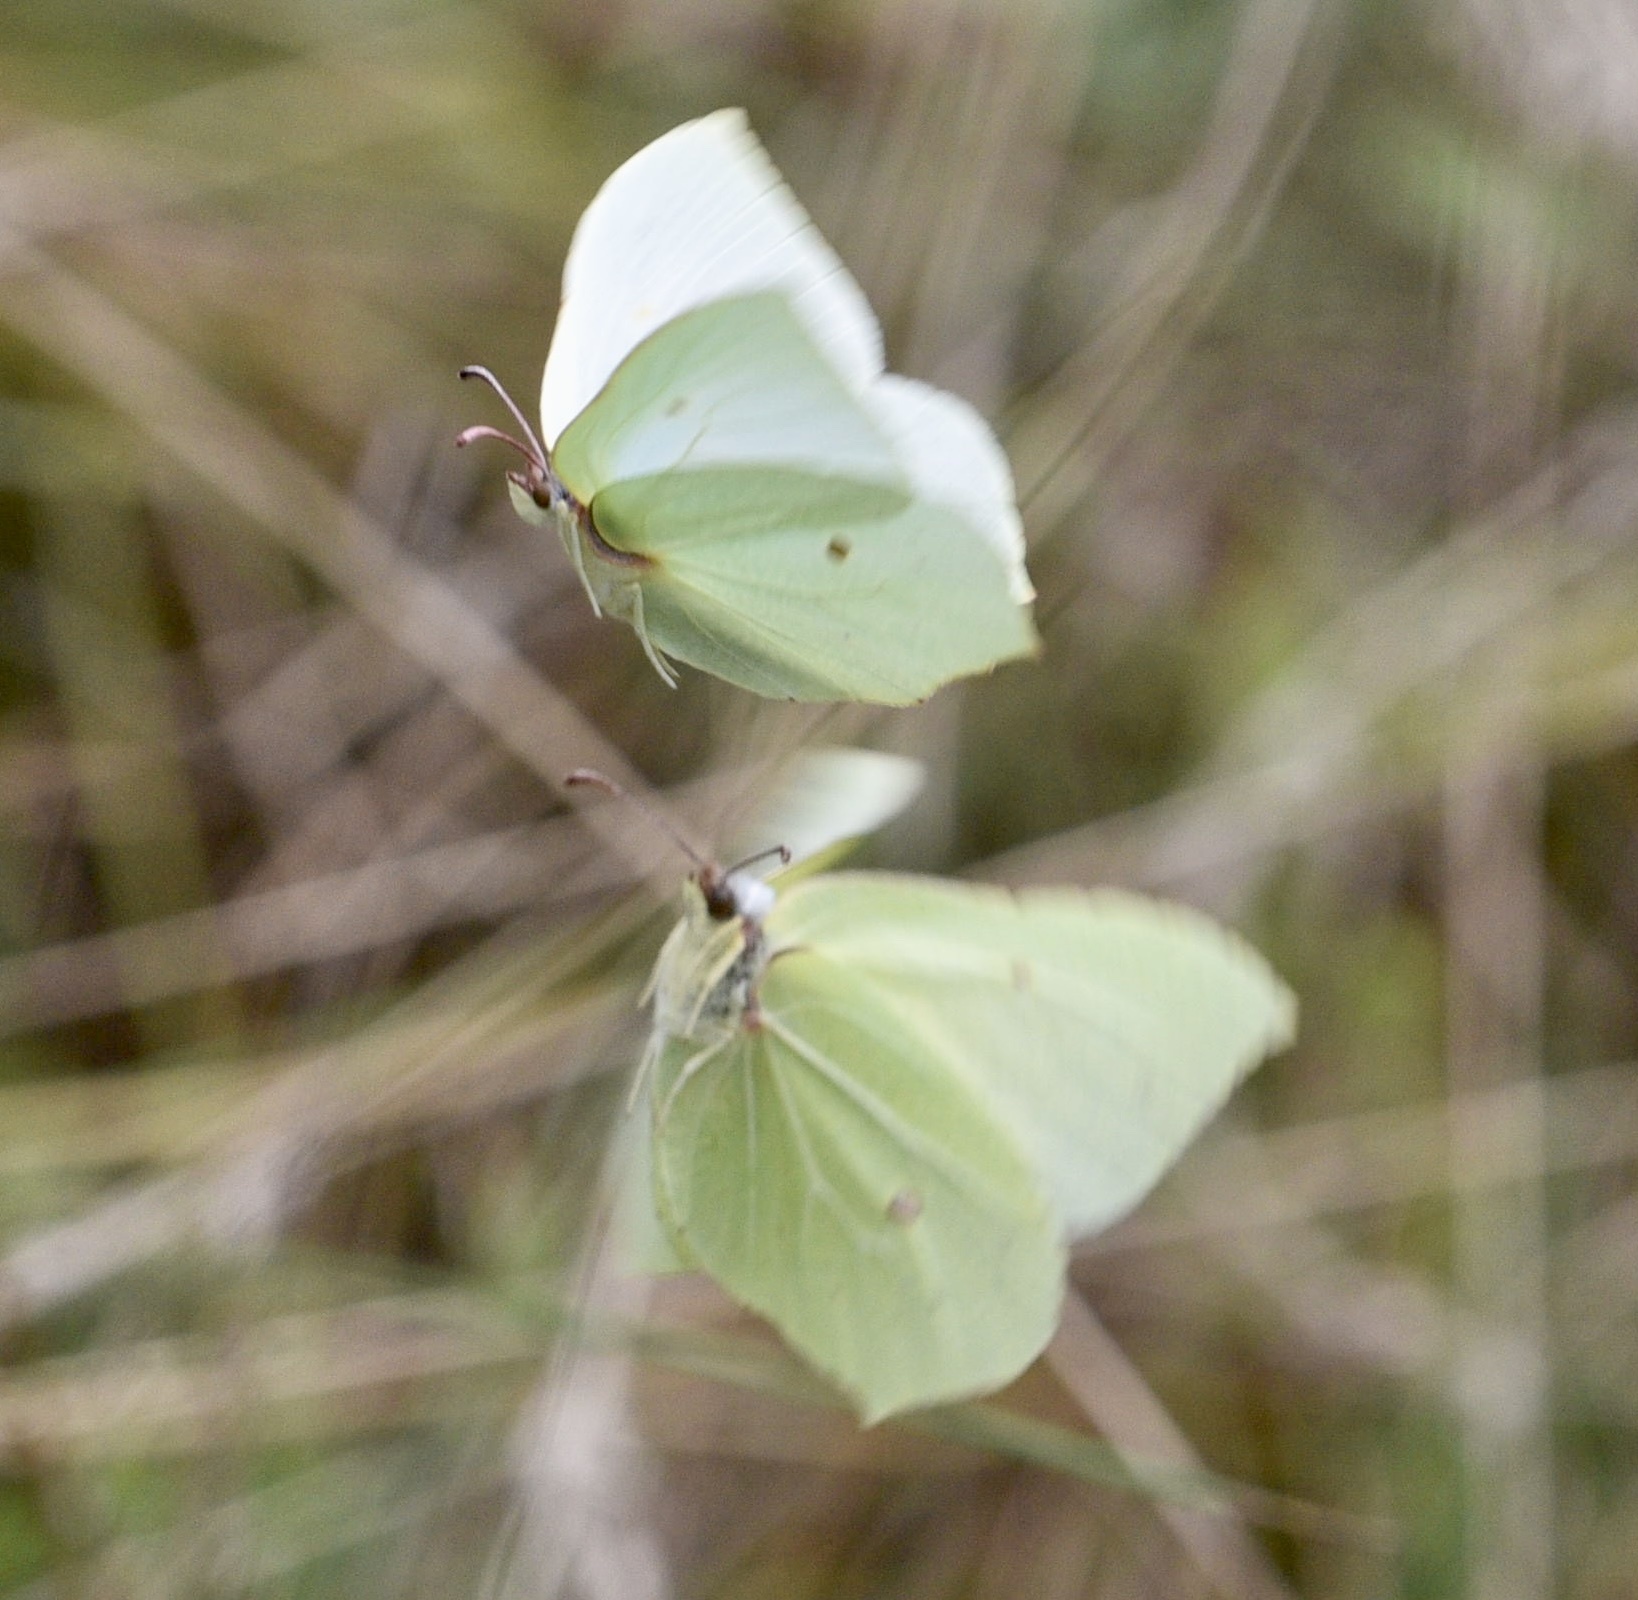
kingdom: Animalia
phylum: Arthropoda
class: Insecta
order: Lepidoptera
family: Pieridae
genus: Gonepteryx
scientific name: Gonepteryx rhamni
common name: Brimstone
